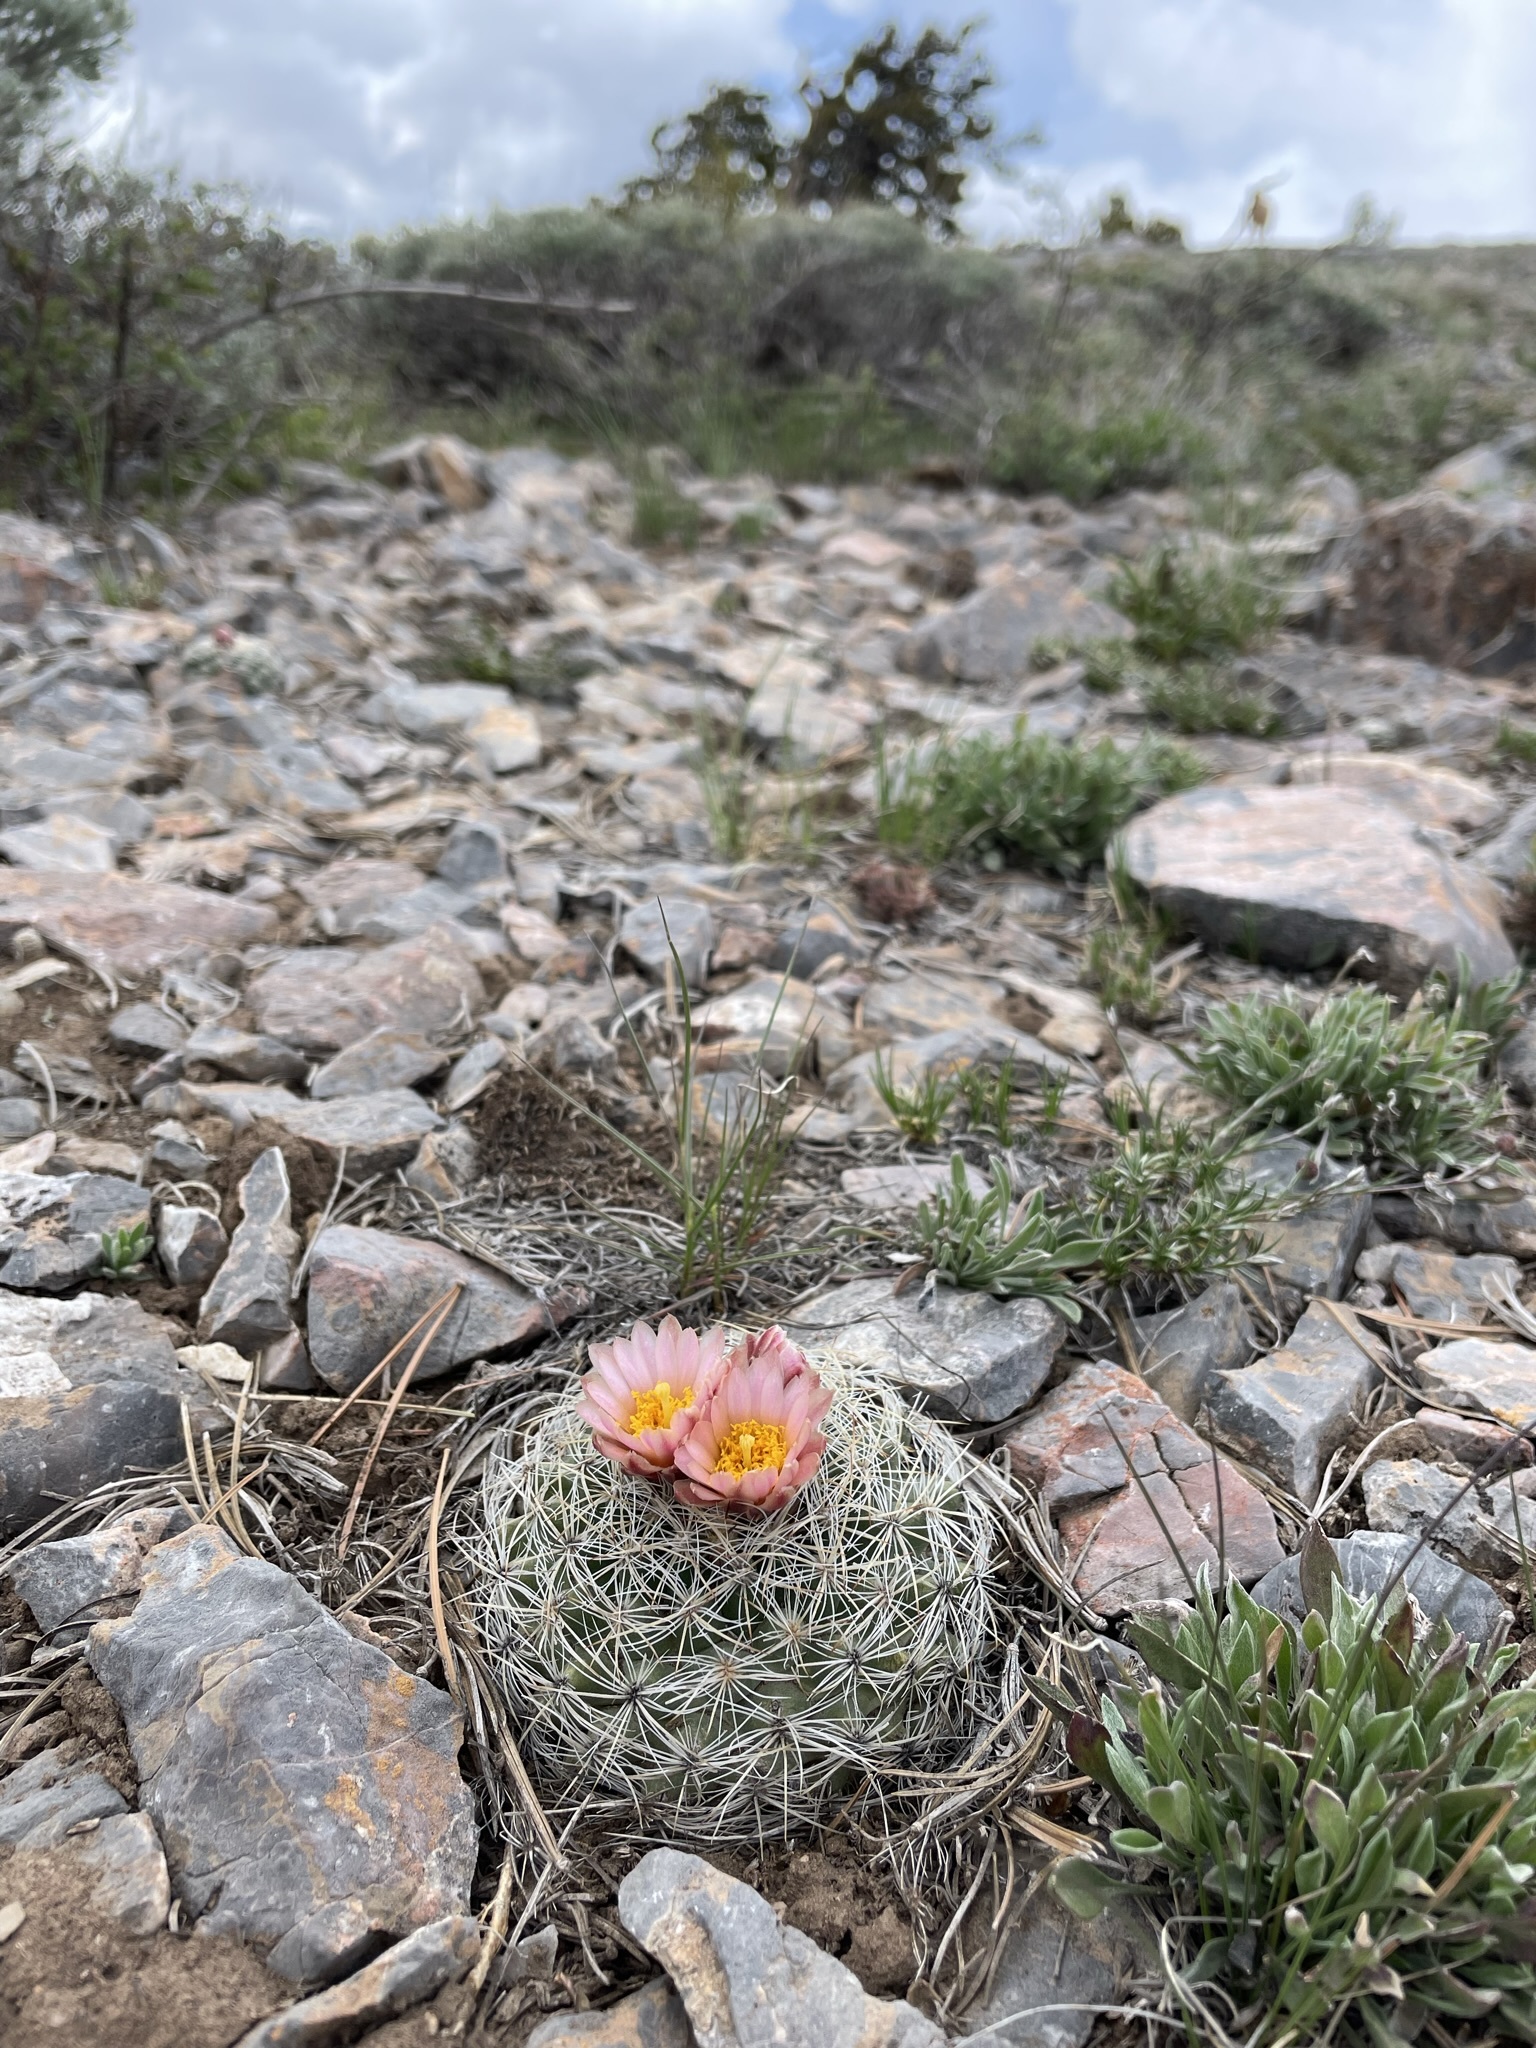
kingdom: Plantae
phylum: Tracheophyta
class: Magnoliopsida
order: Caryophyllales
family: Cactaceae
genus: Pediocactus
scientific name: Pediocactus simpsonii
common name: Simpson's hedgehog cactus
